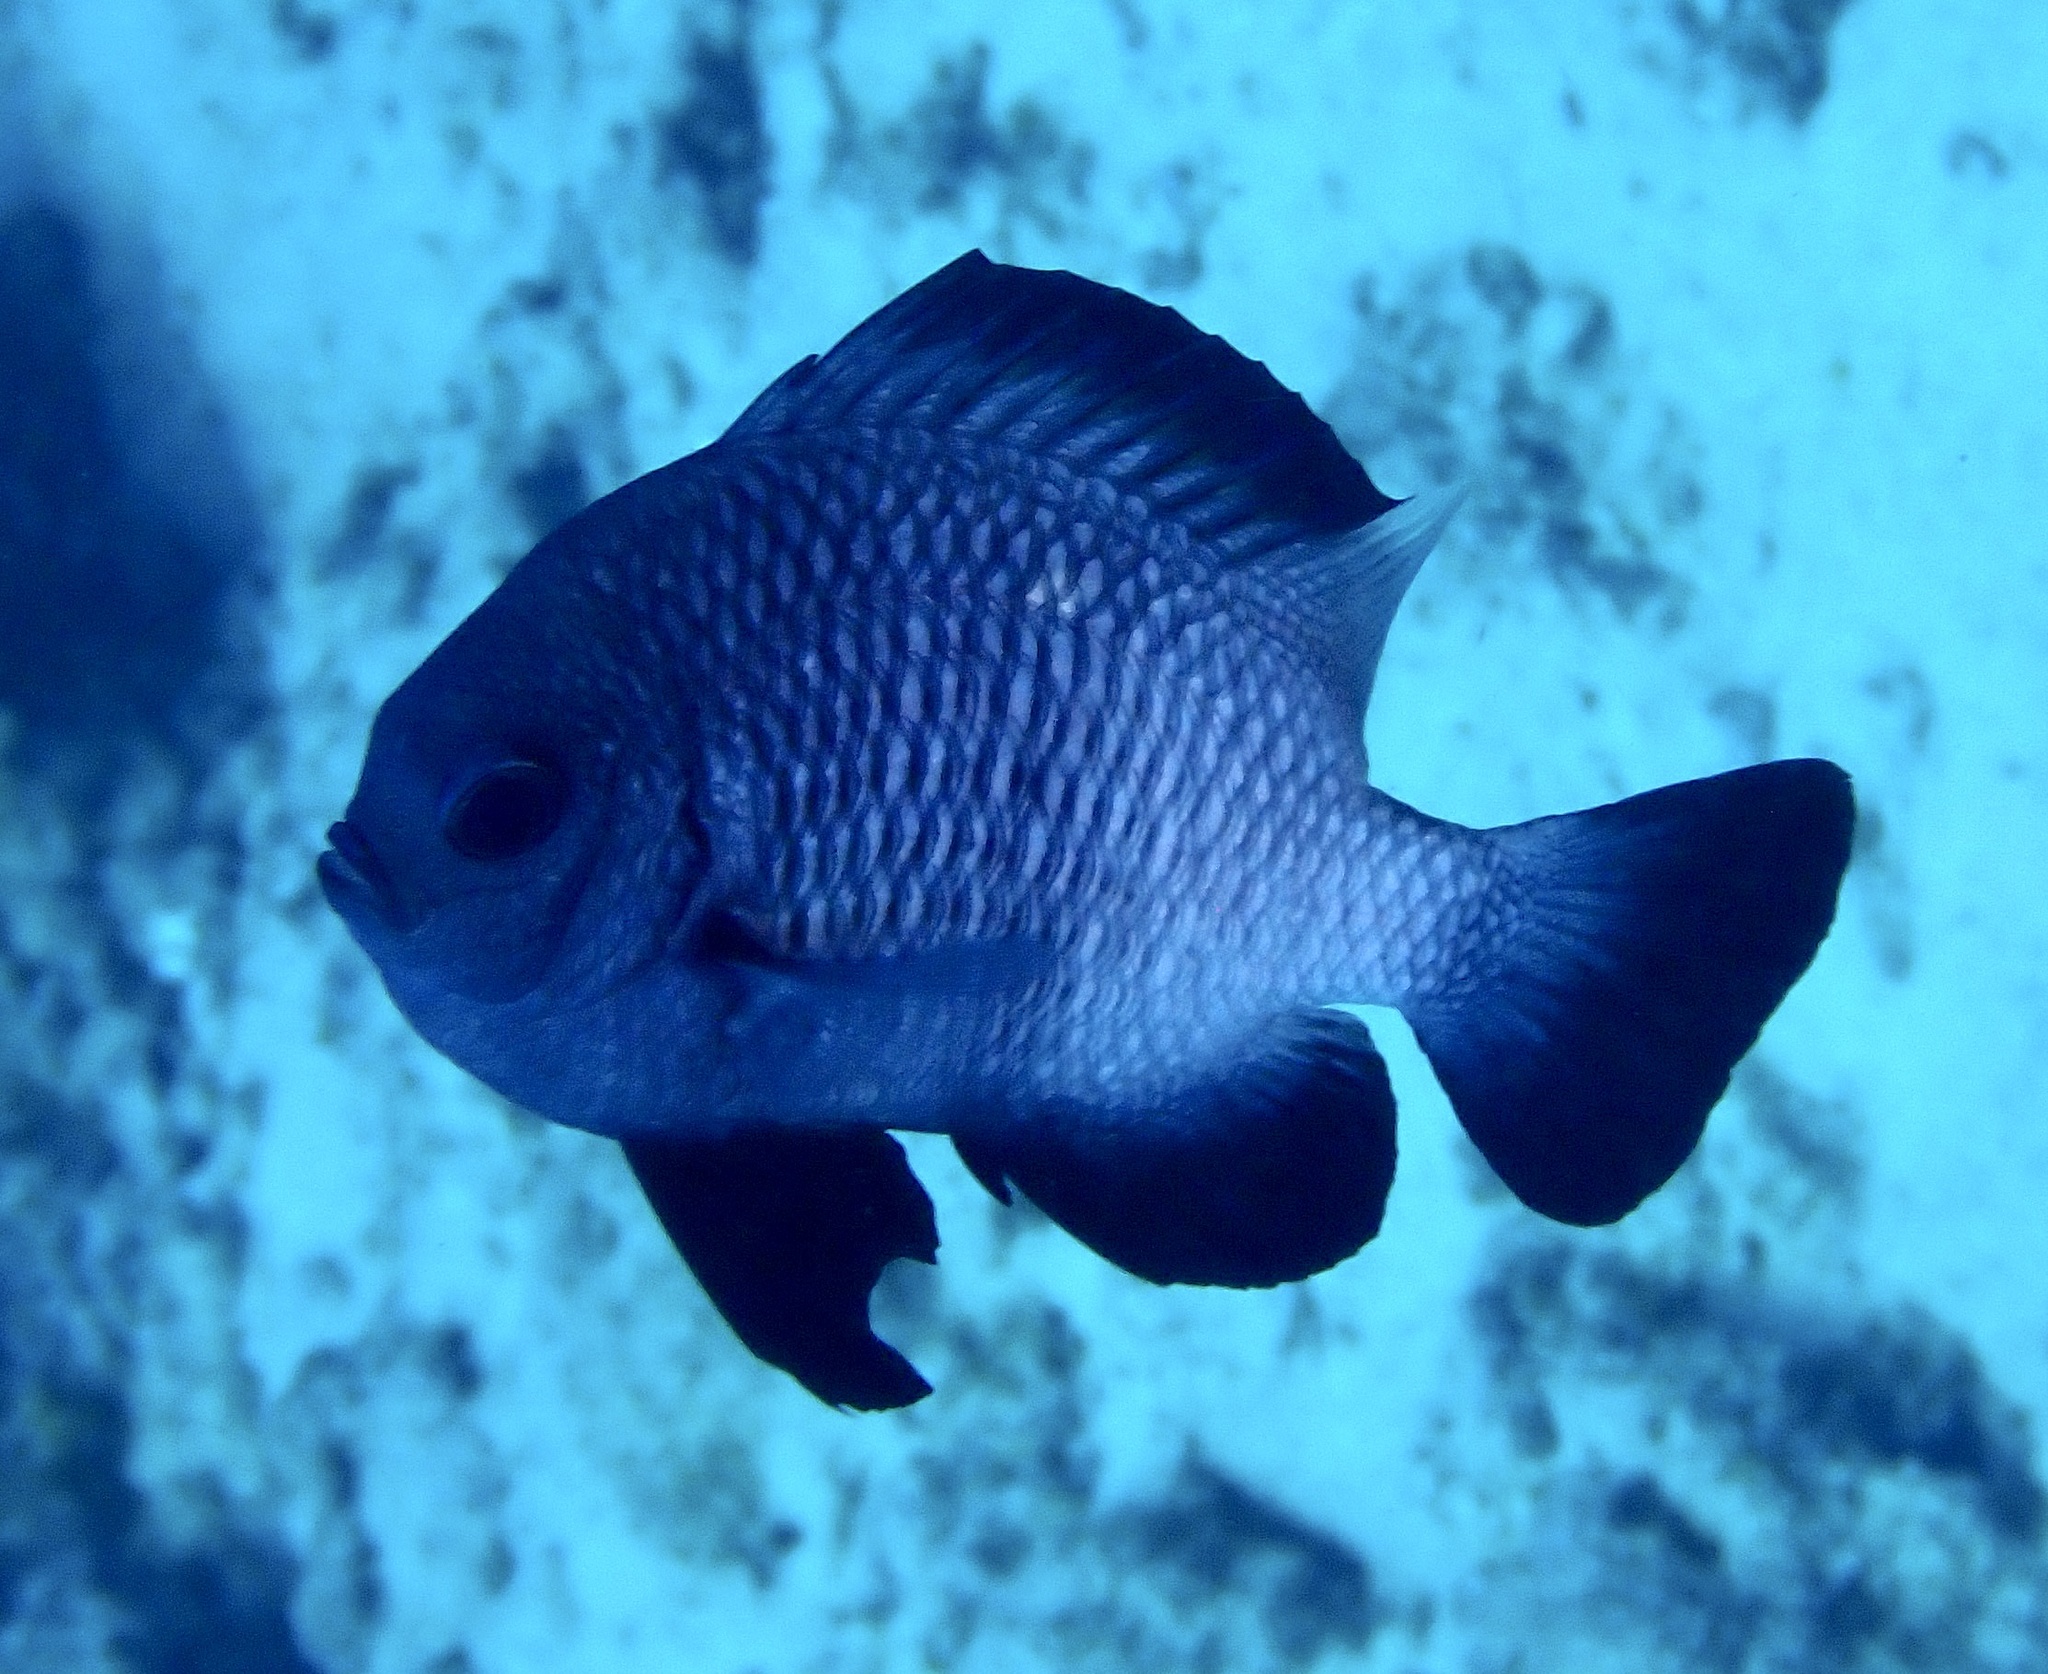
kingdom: Animalia
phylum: Chordata
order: Perciformes
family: Pomacentridae
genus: Dascyllus
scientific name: Dascyllus trimaculatus
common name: Threespot dascyllus
